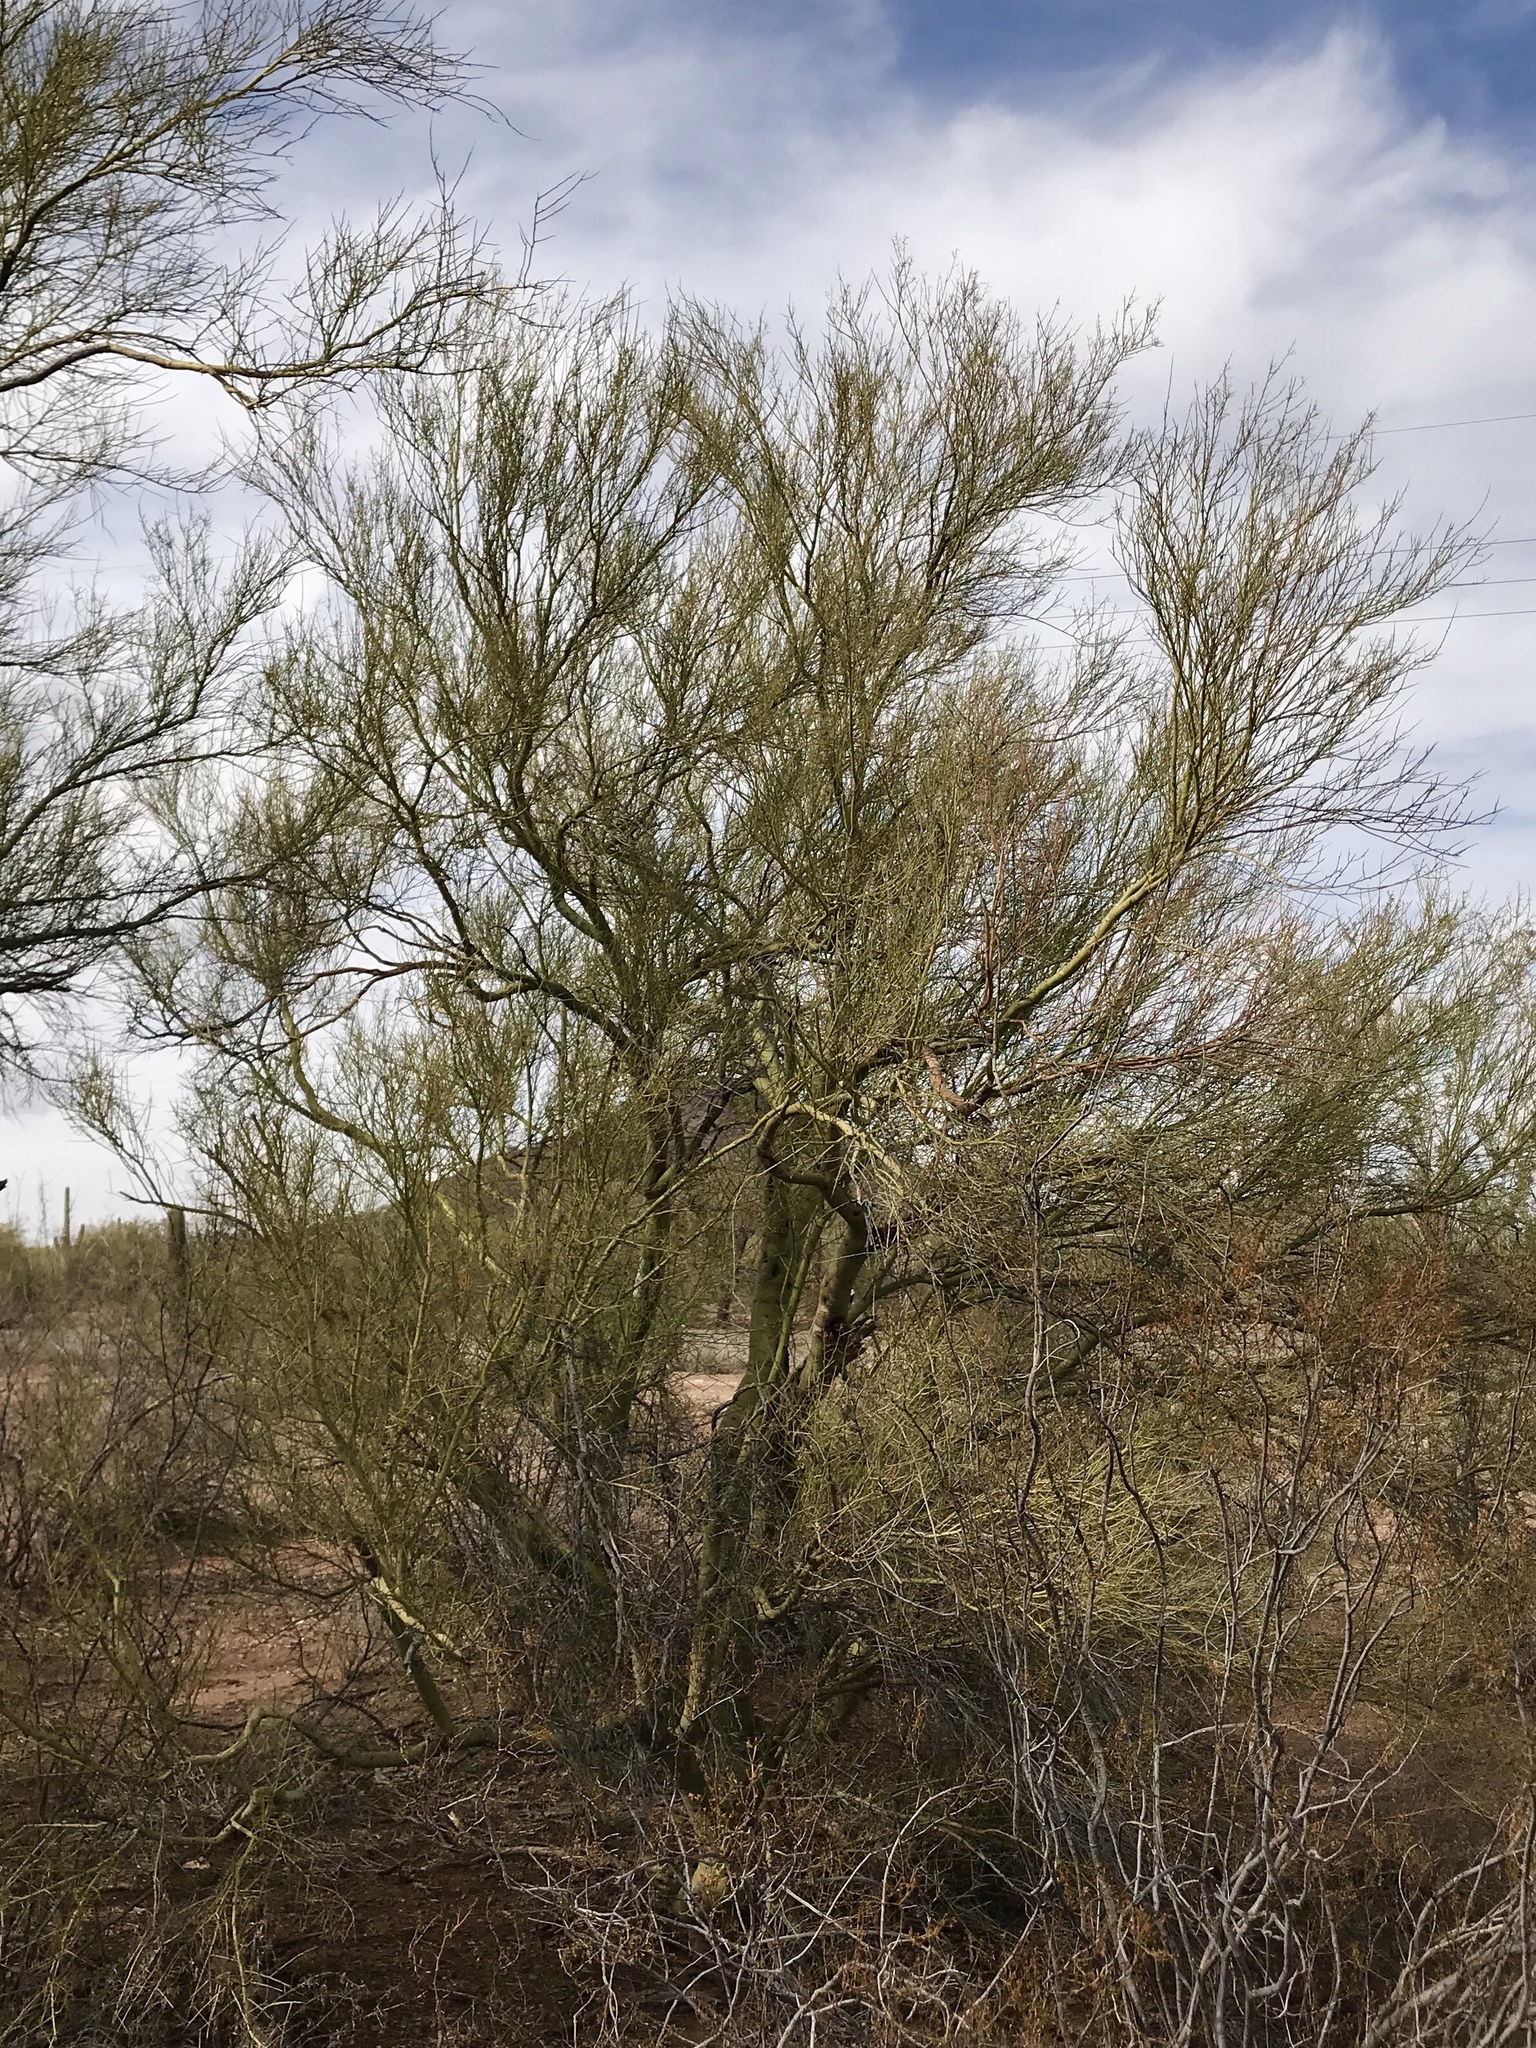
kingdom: Plantae
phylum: Tracheophyta
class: Magnoliopsida
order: Fabales
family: Fabaceae
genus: Parkinsonia
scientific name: Parkinsonia microphylla
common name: Yellow paloverde
